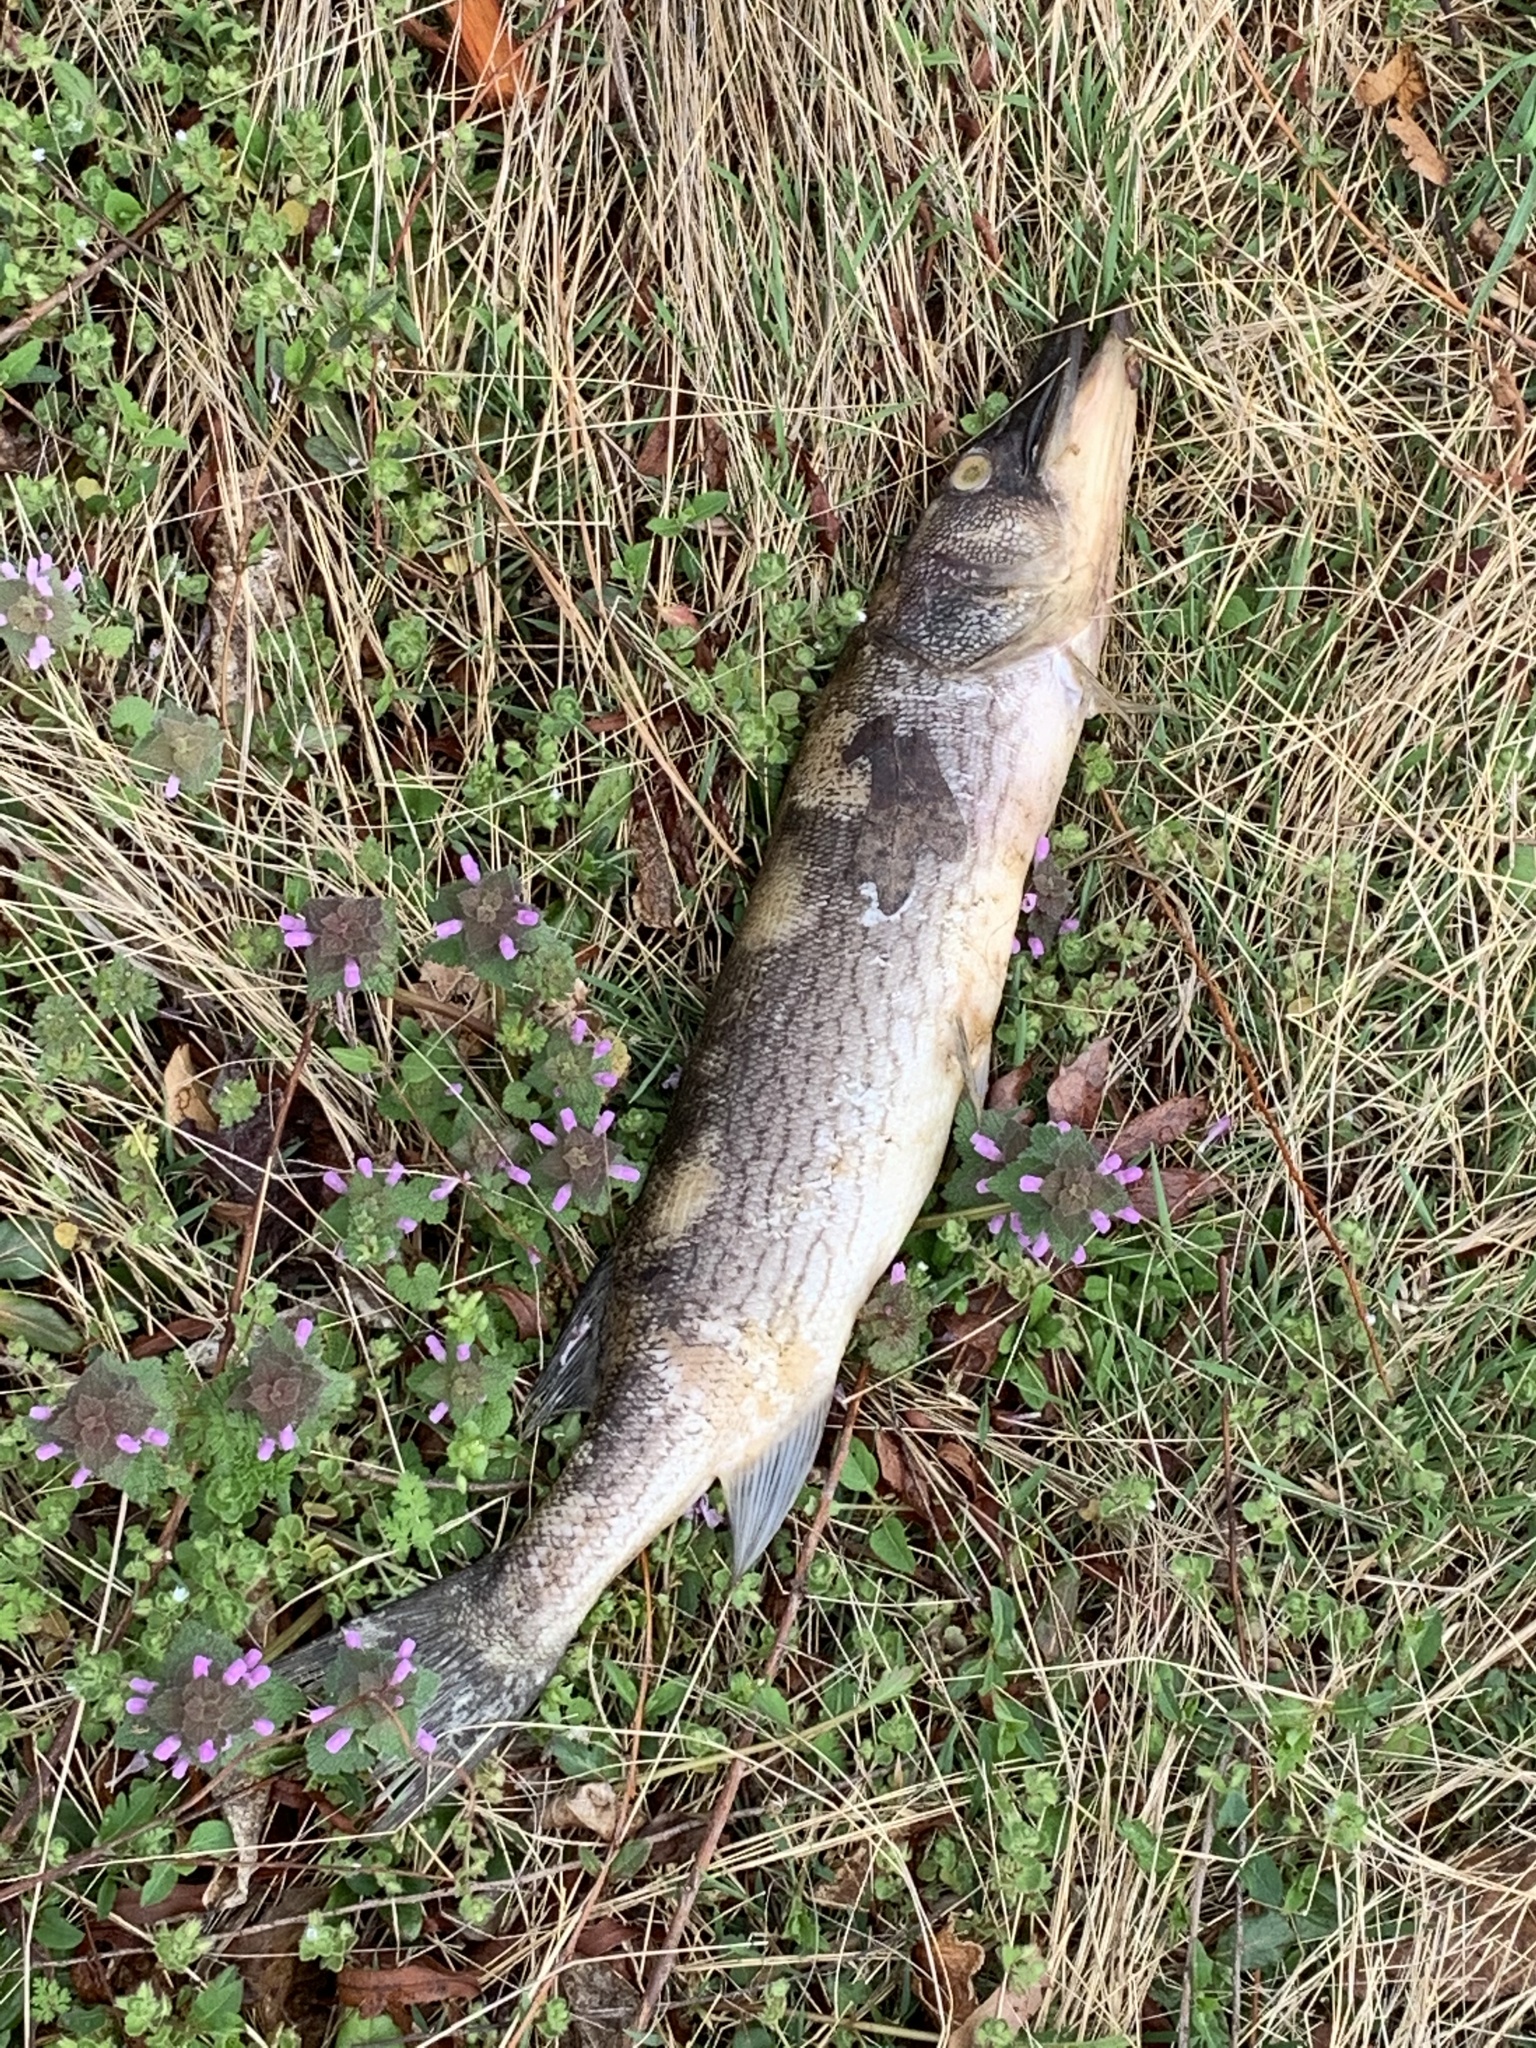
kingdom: Animalia
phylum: Chordata
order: Esociformes
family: Esocidae
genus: Esox
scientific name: Esox niger
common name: Chain pickerel
